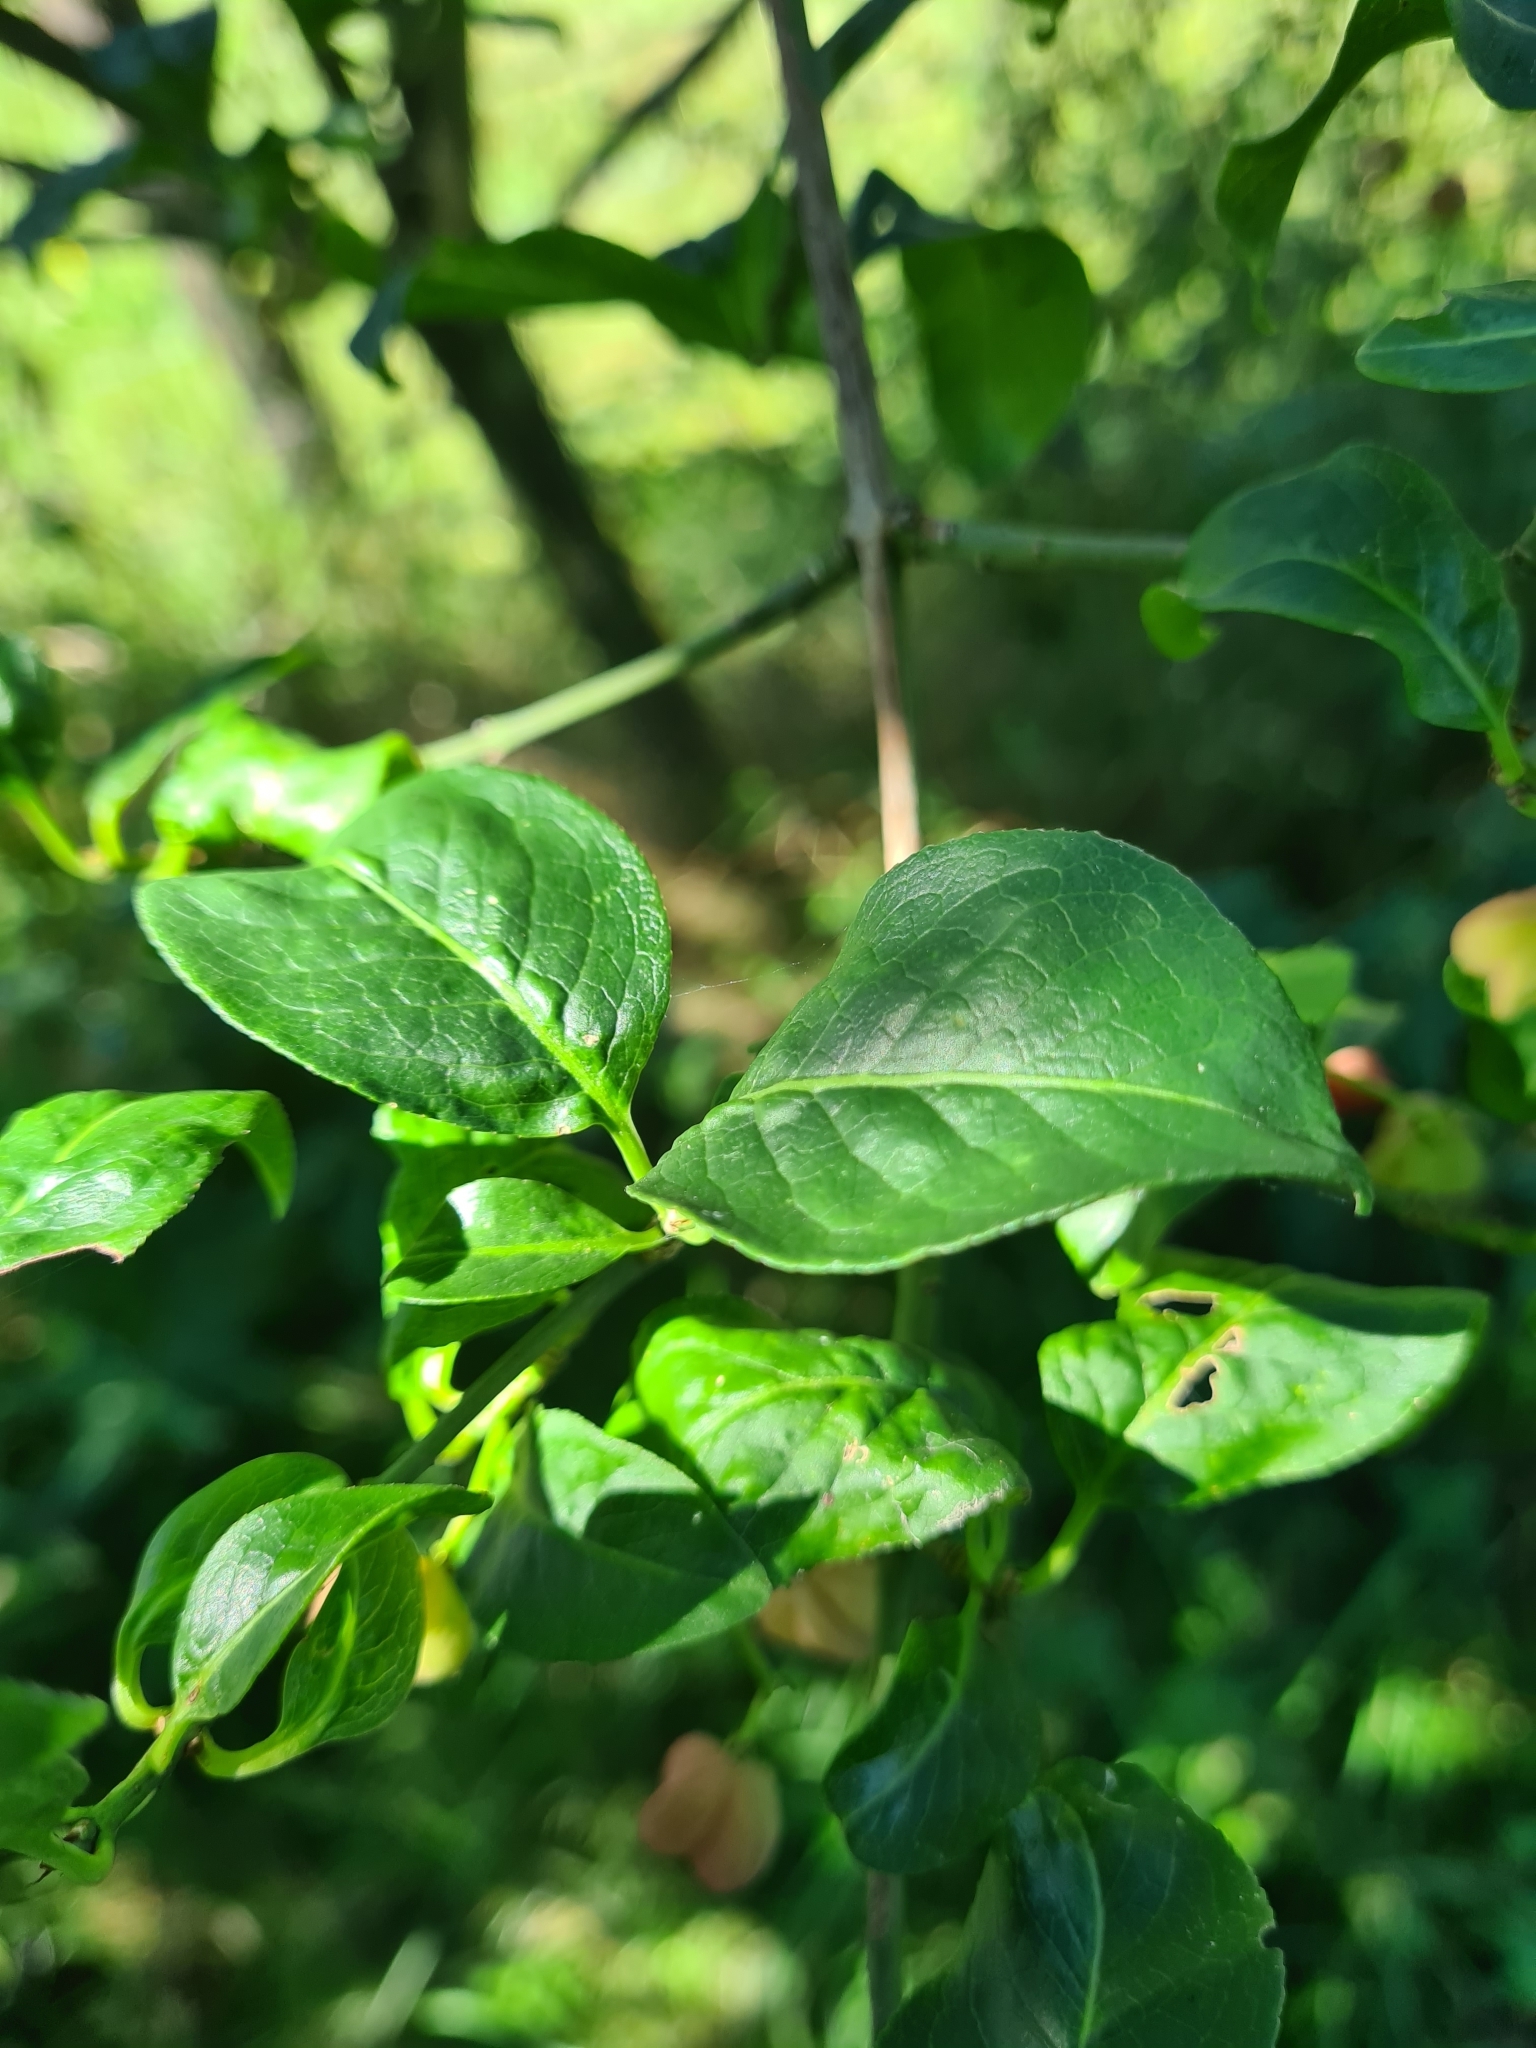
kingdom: Plantae
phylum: Tracheophyta
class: Magnoliopsida
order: Celastrales
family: Celastraceae
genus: Euonymus
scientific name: Euonymus europaeus
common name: Spindle
